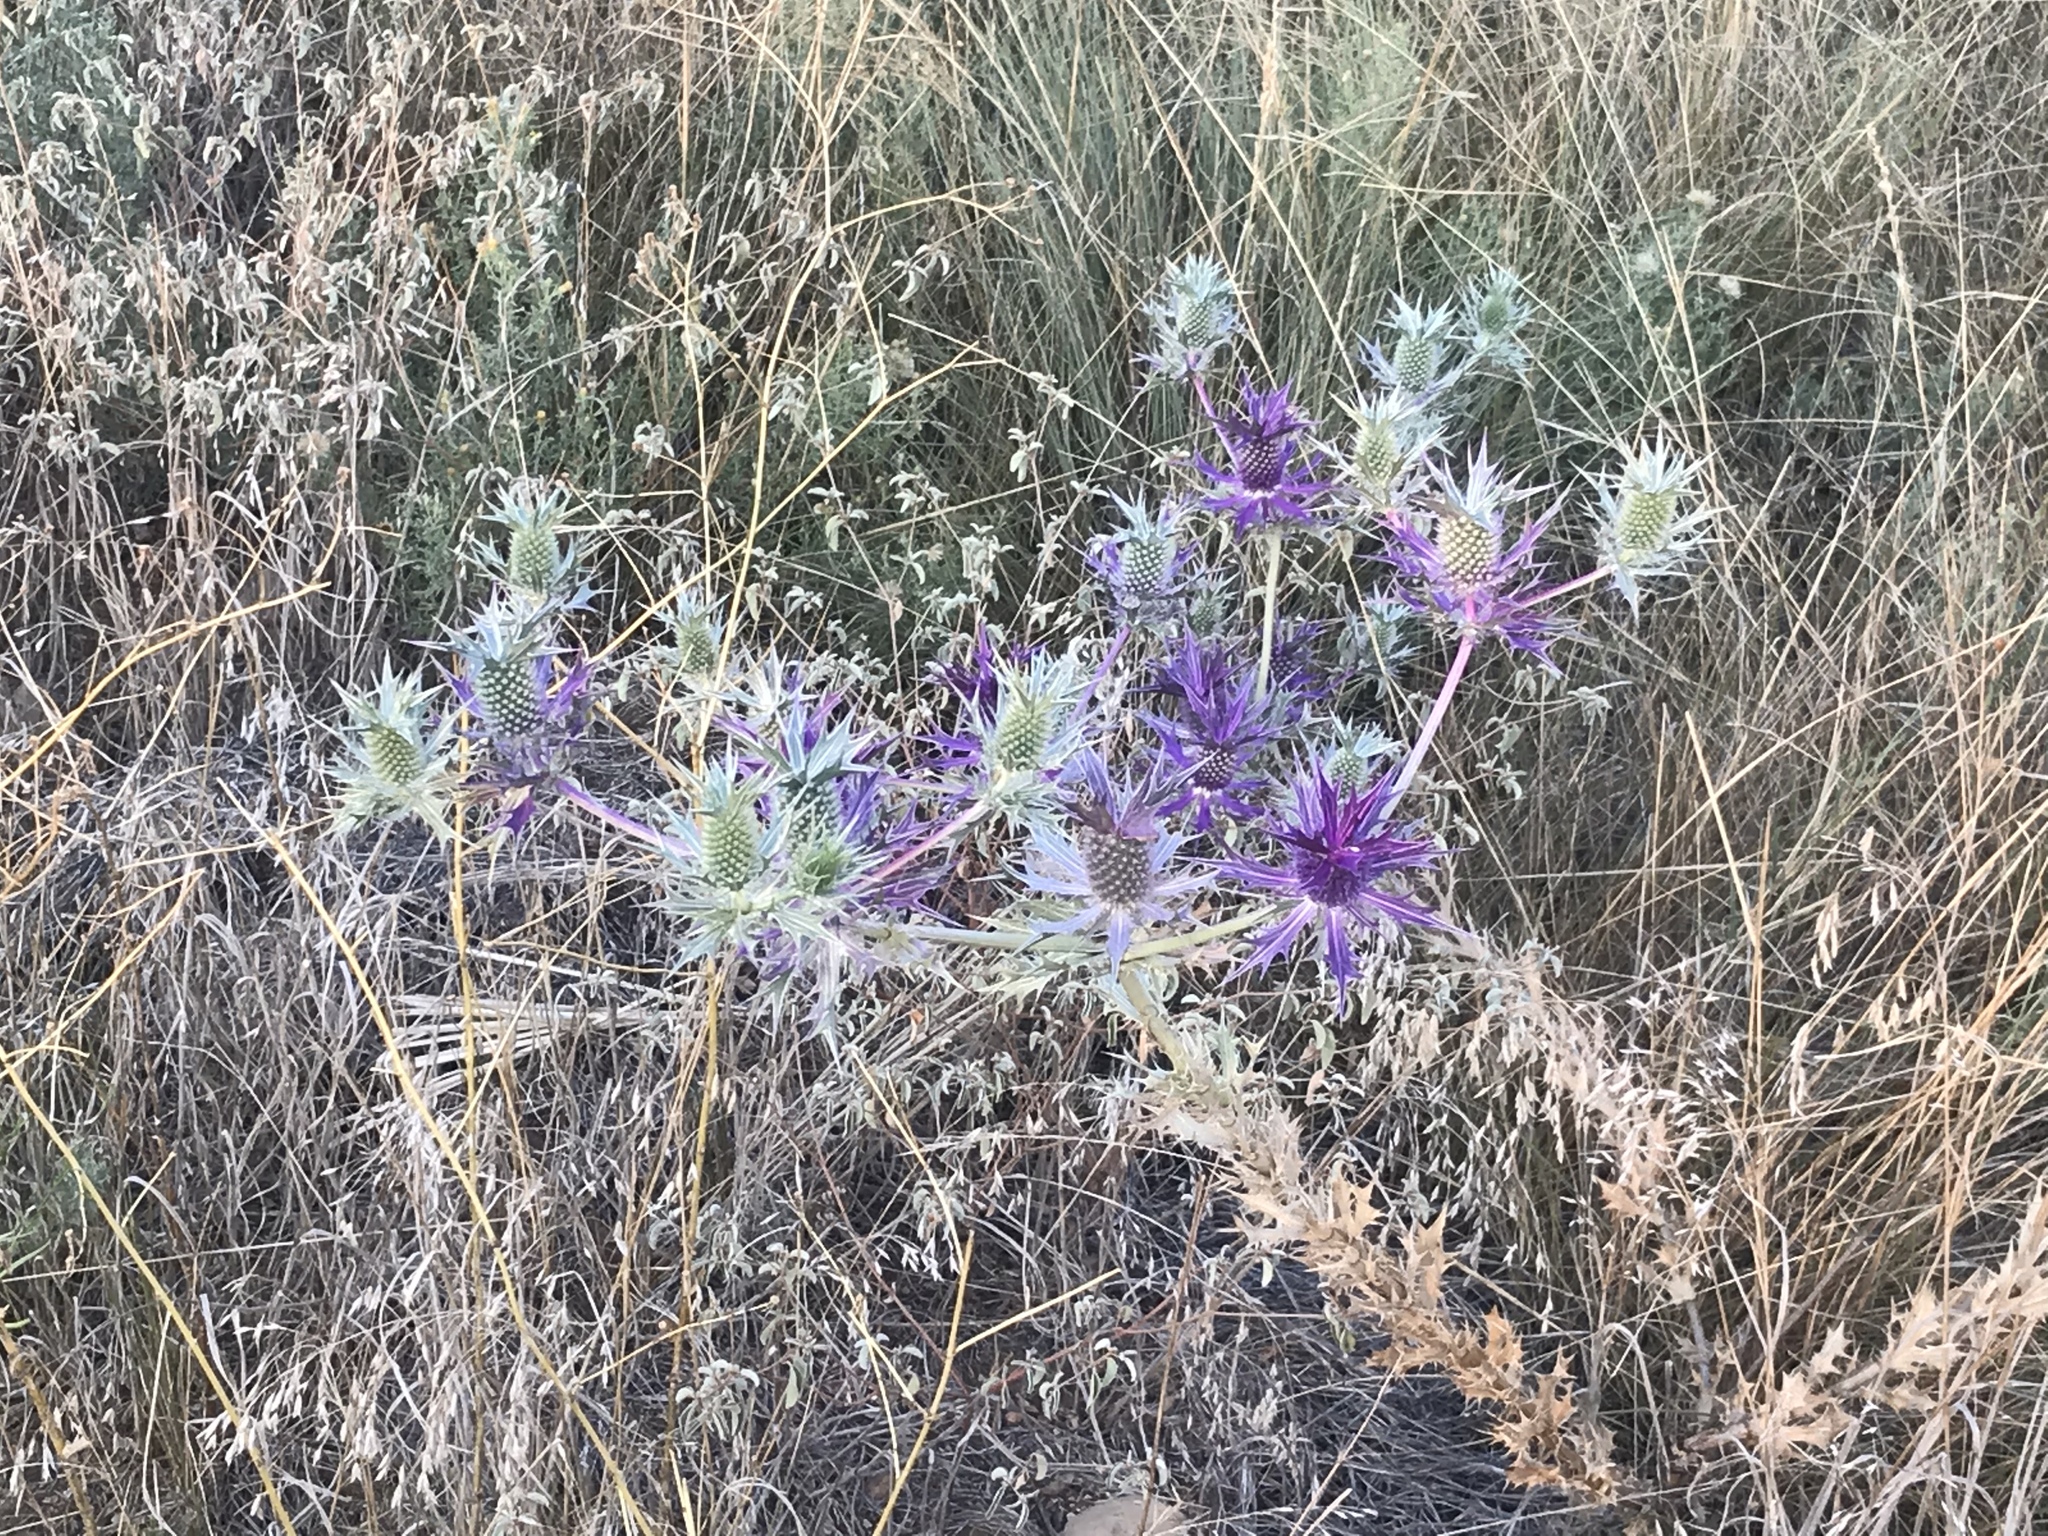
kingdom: Plantae
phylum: Tracheophyta
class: Magnoliopsida
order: Apiales
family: Apiaceae
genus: Eryngium
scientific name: Eryngium leavenworthii
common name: Leavenworth's eryngo
